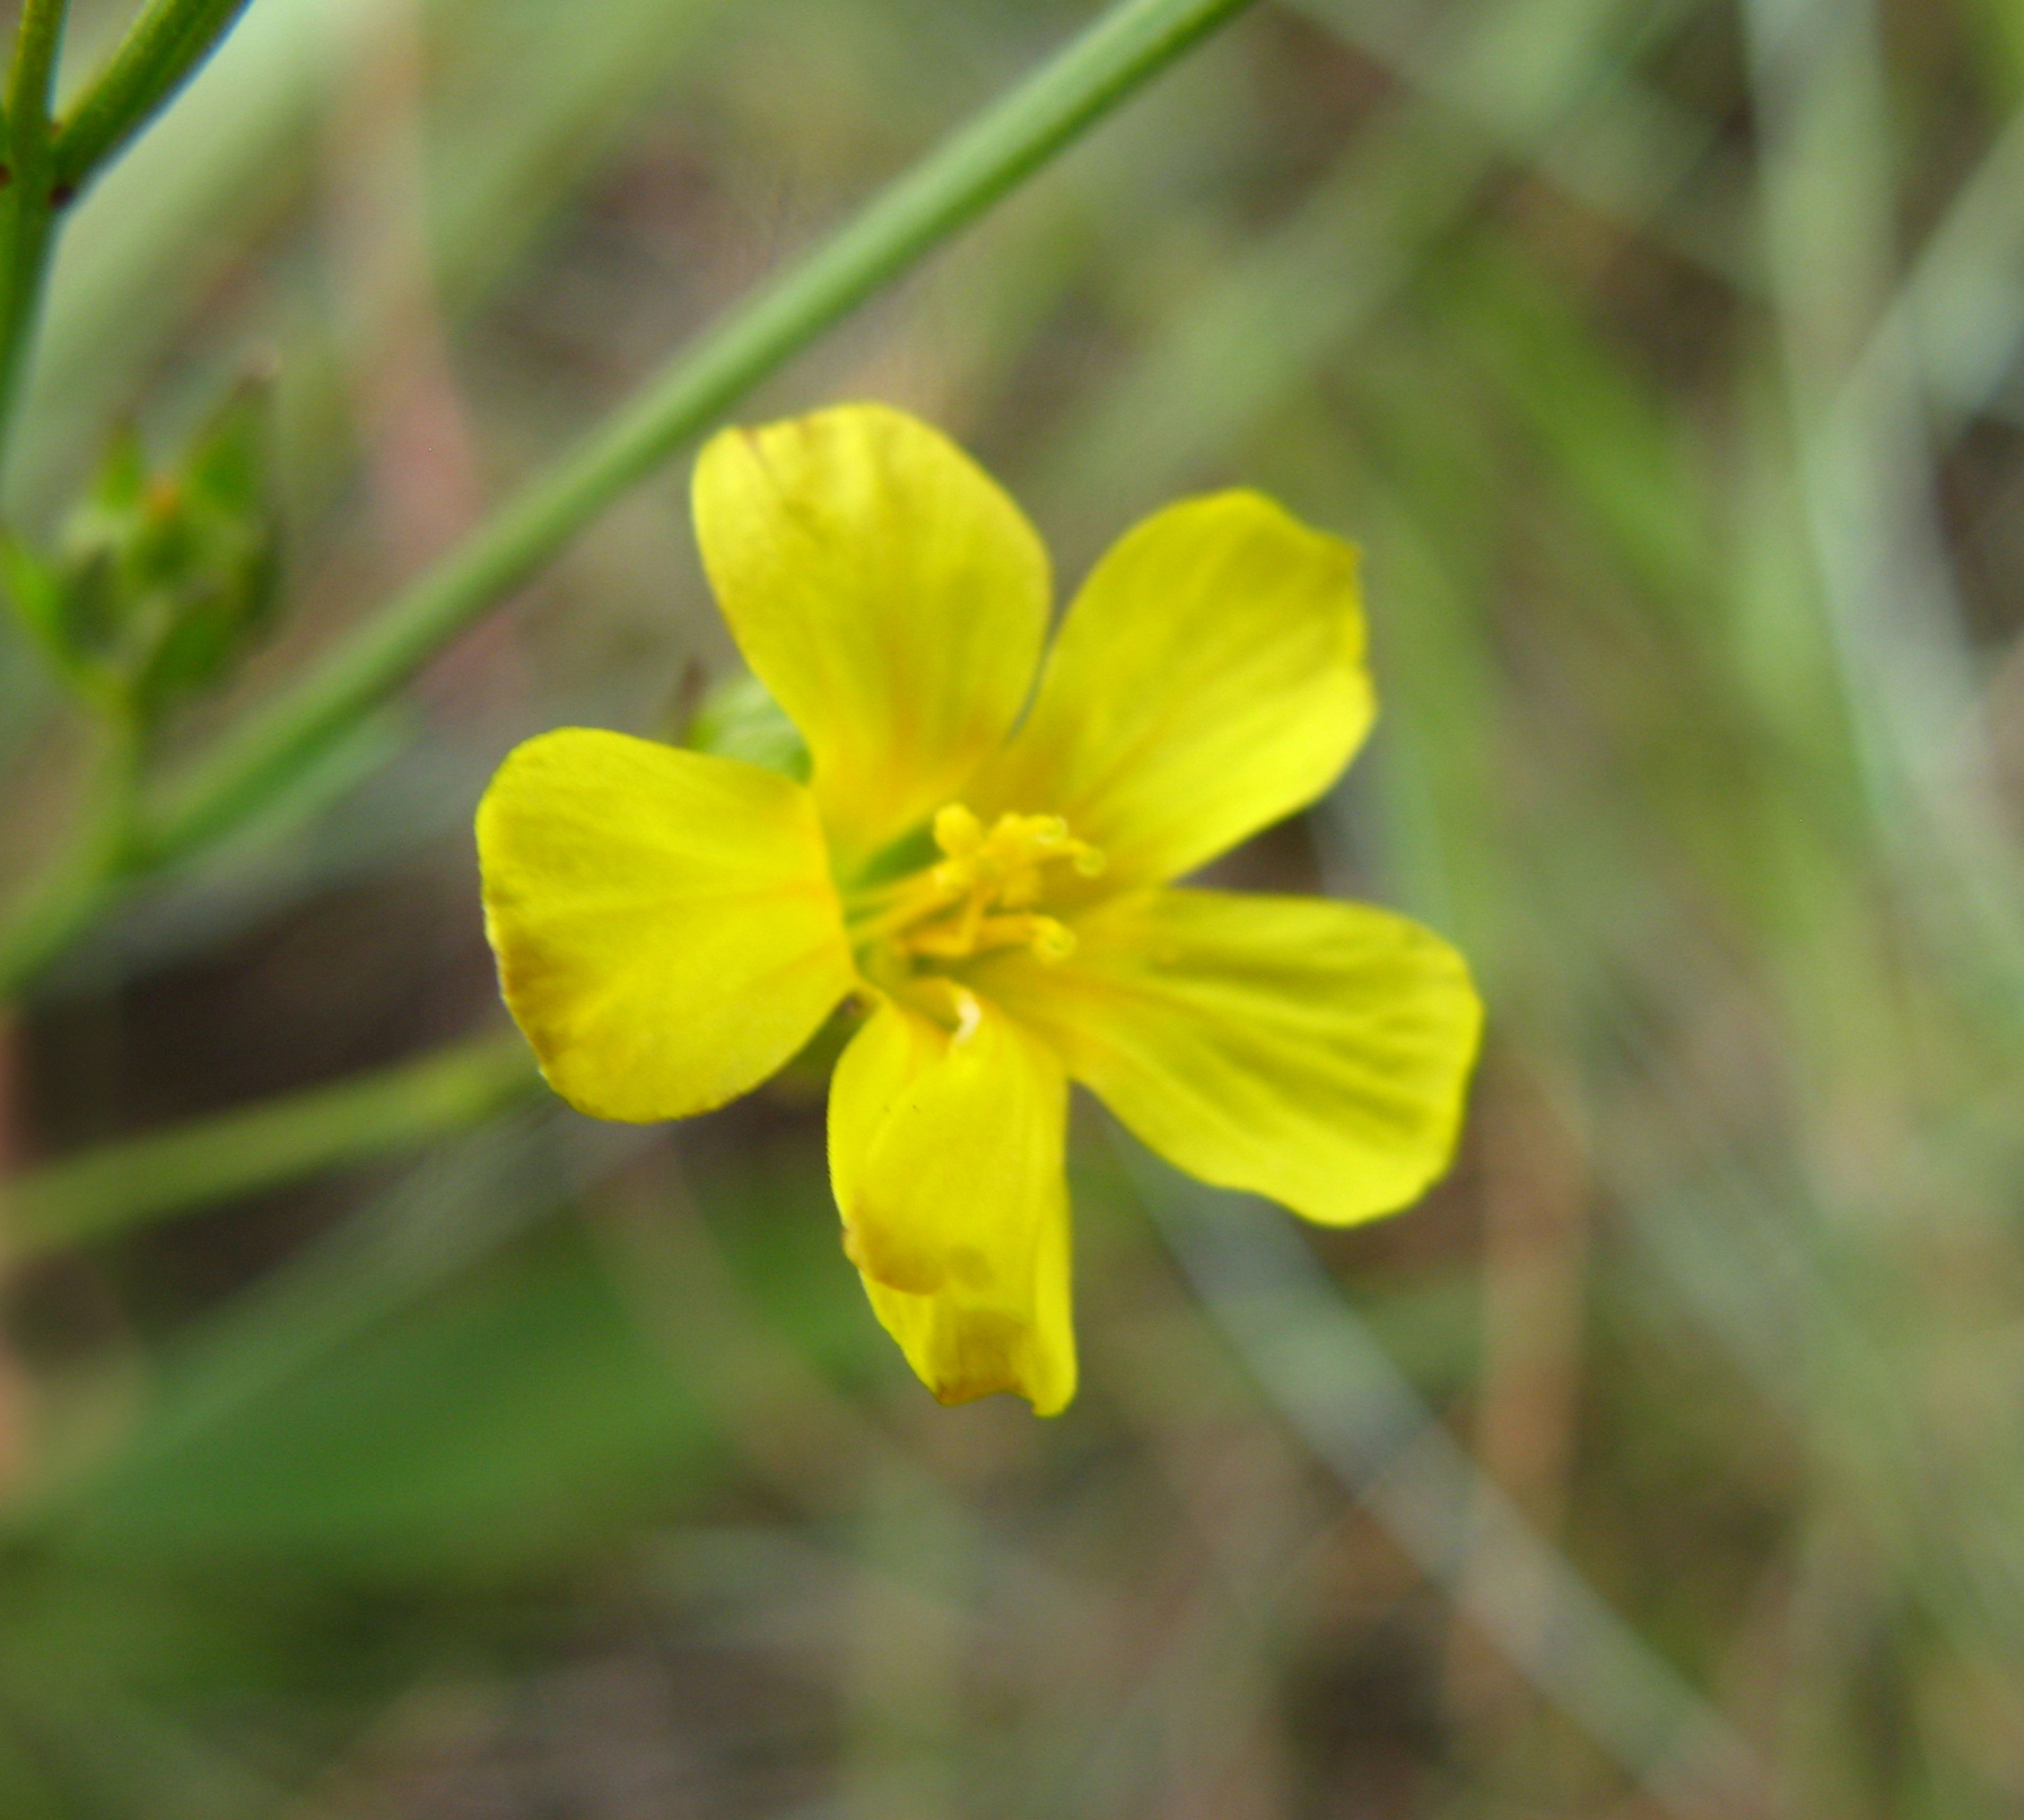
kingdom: Plantae
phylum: Tracheophyta
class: Magnoliopsida
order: Malpighiales
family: Linaceae
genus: Linum
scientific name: Linum thunbergii
